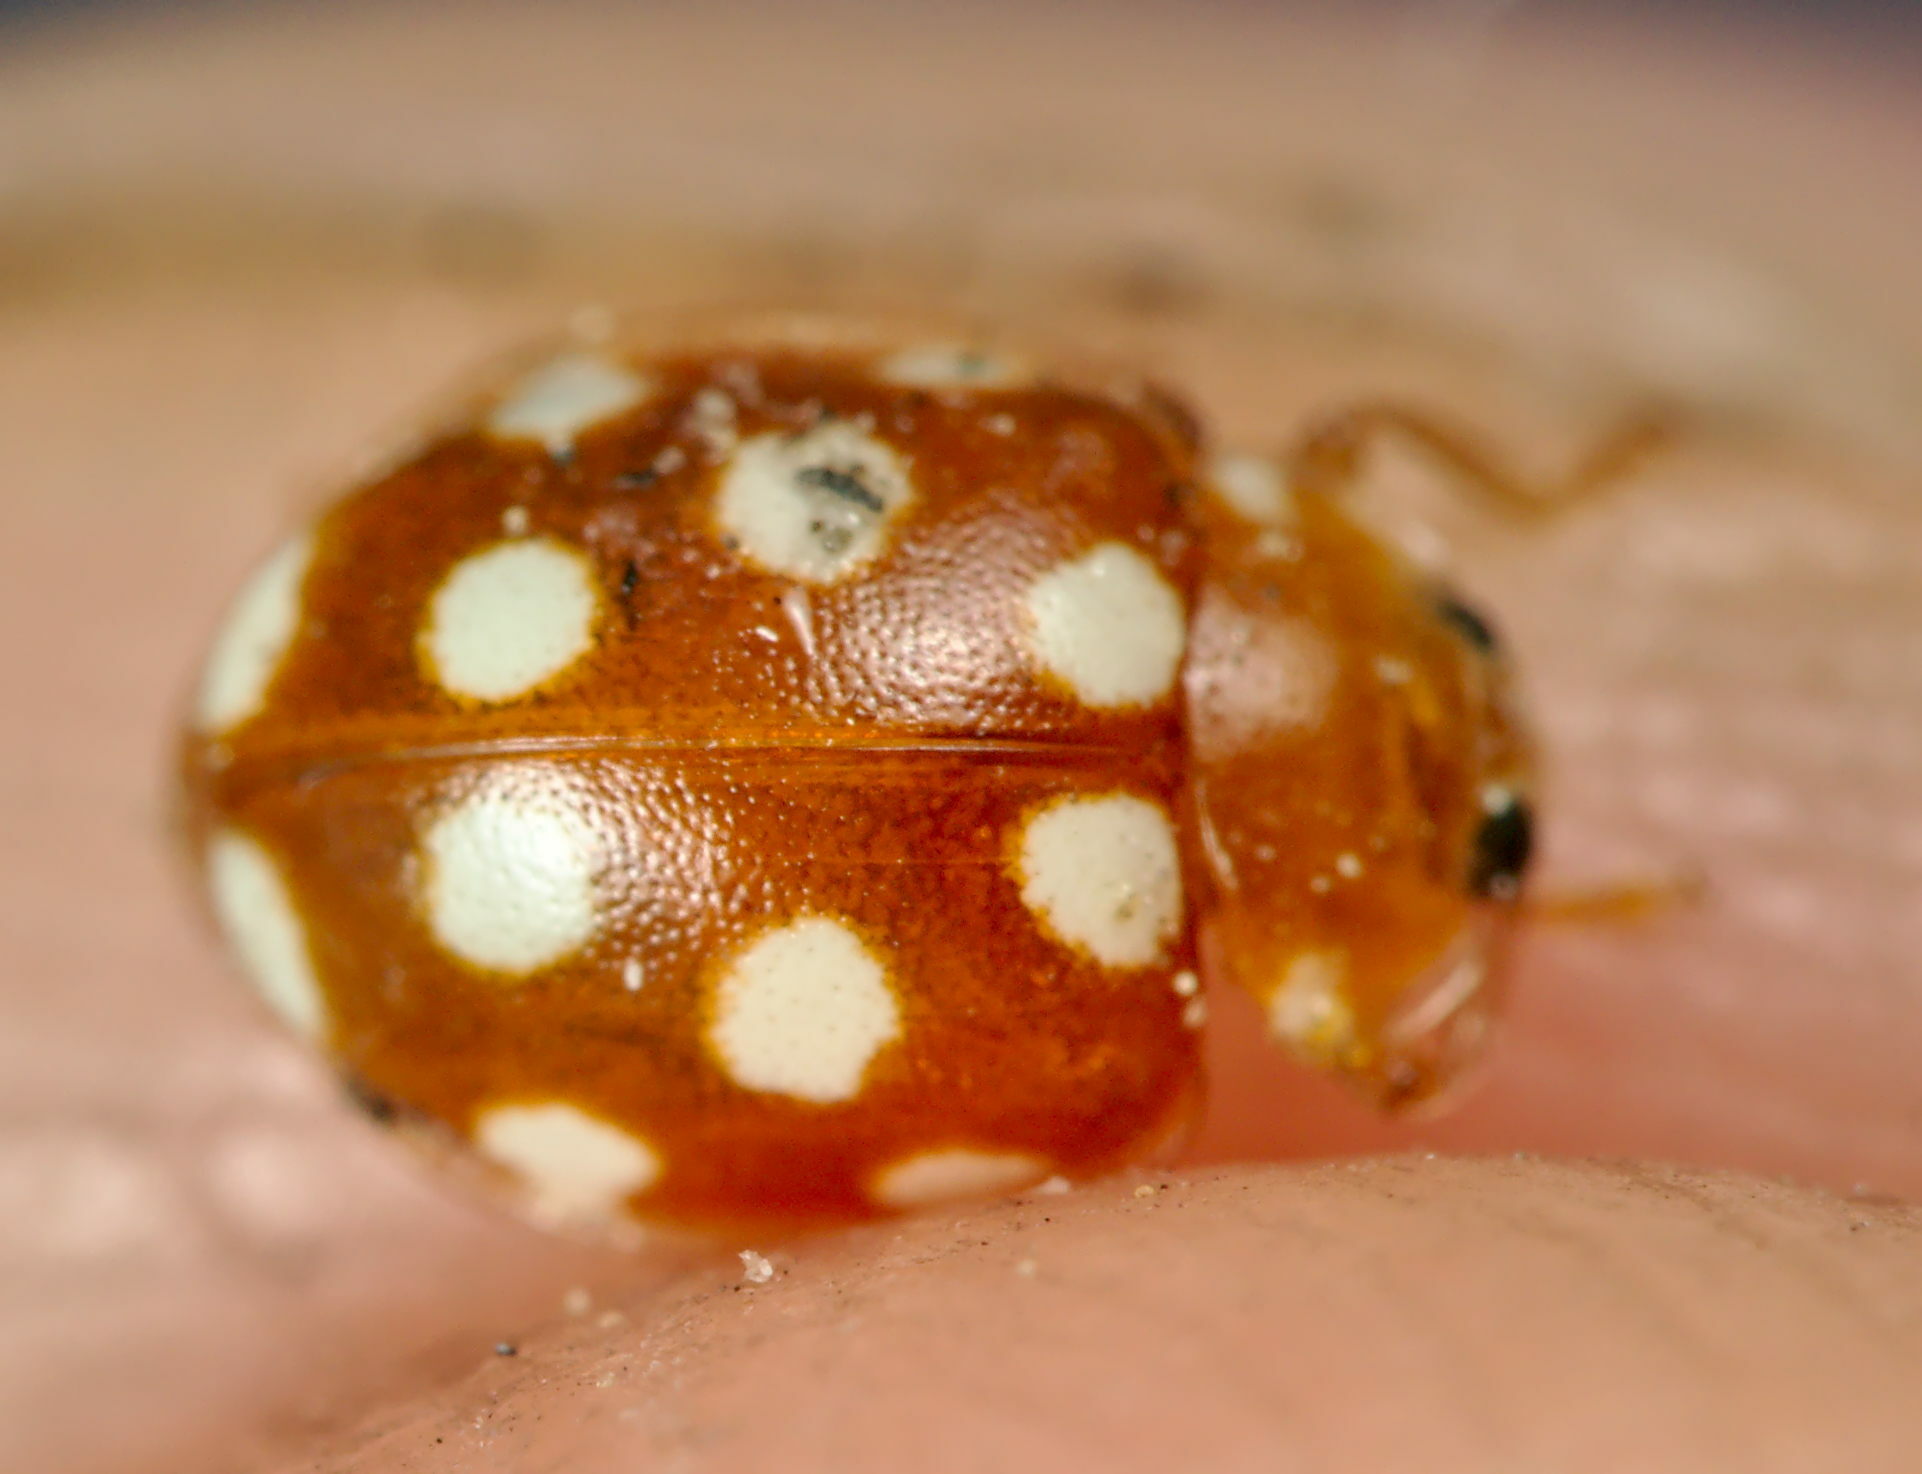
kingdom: Animalia
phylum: Arthropoda
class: Insecta
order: Coleoptera
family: Coccinellidae
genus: Vibidia
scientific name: Vibidia duodecimguttata
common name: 12-spot ladybird
